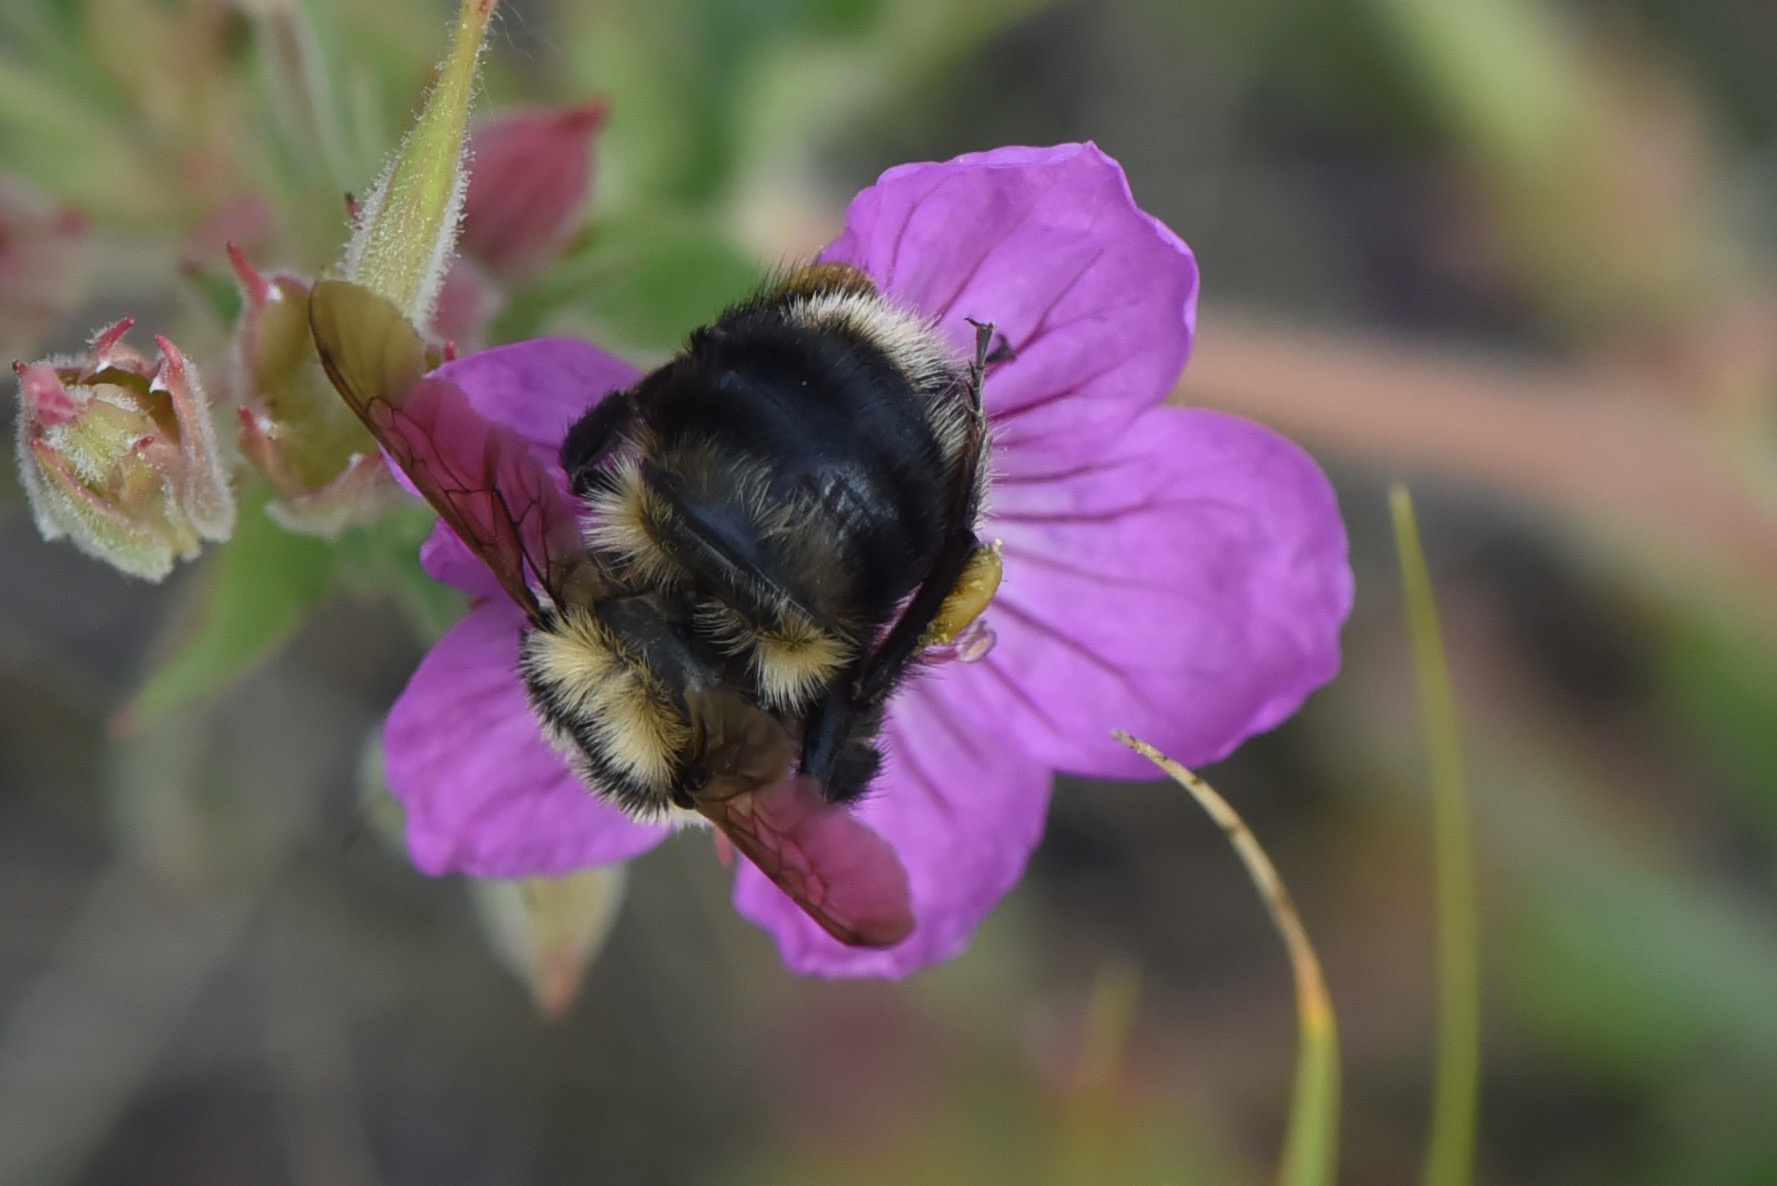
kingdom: Animalia
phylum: Arthropoda
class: Insecta
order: Hymenoptera
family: Apidae
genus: Bombus
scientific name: Bombus rufocinctus
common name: Red-belted bumble bee
